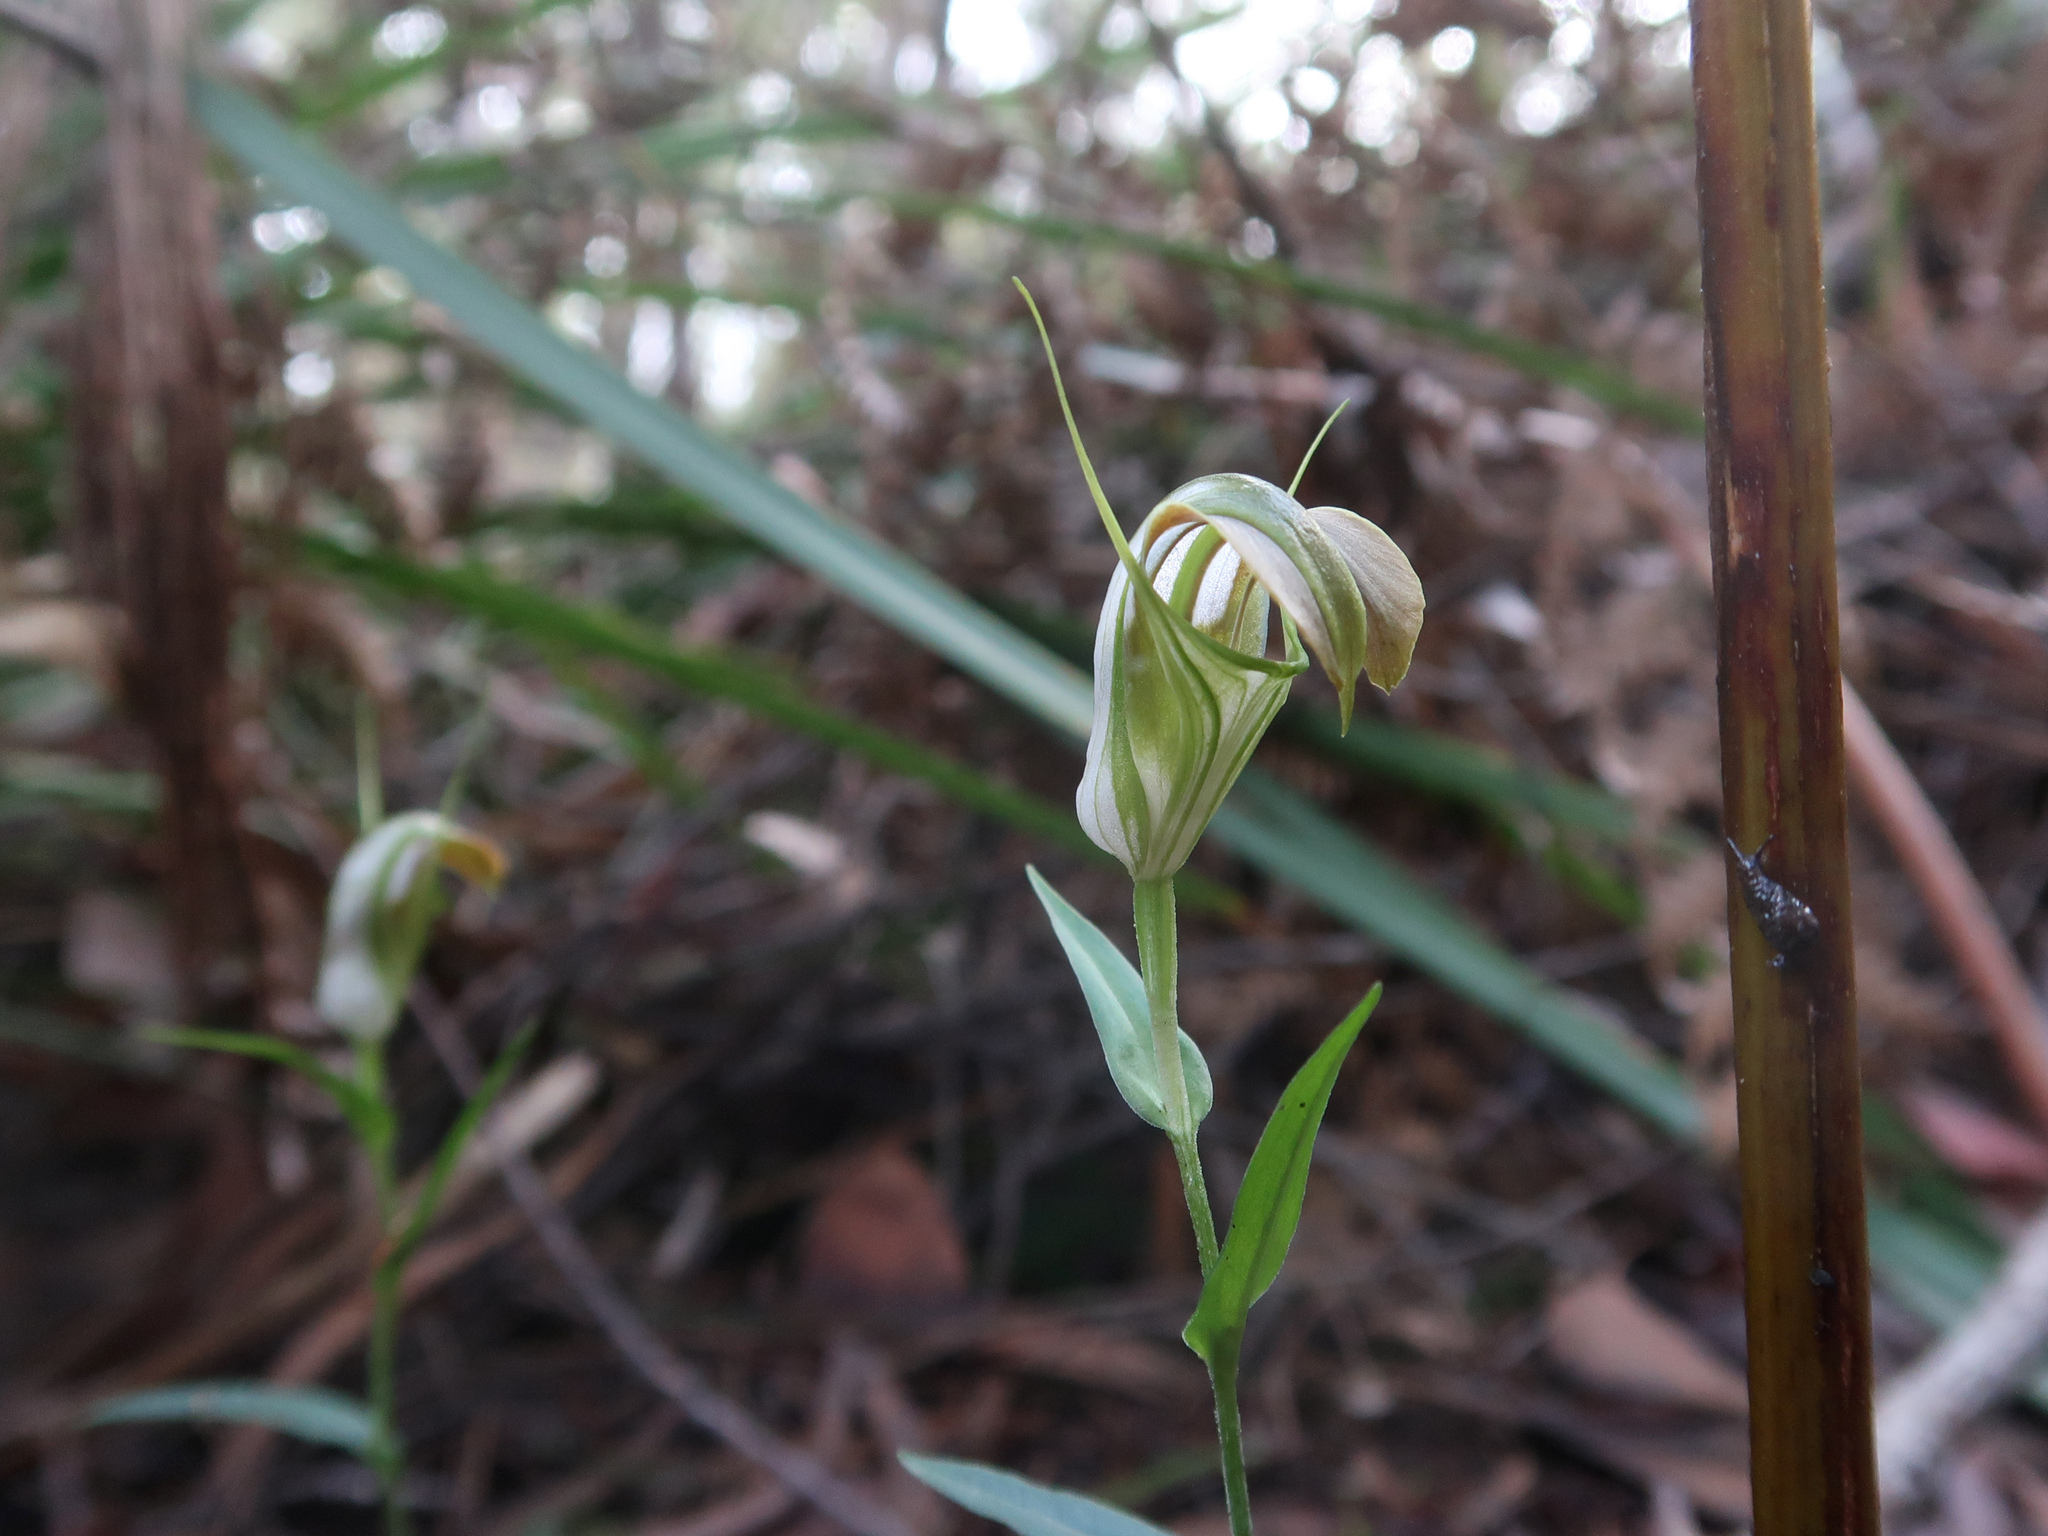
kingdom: Plantae
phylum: Tracheophyta
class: Liliopsida
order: Asparagales
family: Orchidaceae
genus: Pterostylis
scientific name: Pterostylis grandiflora
